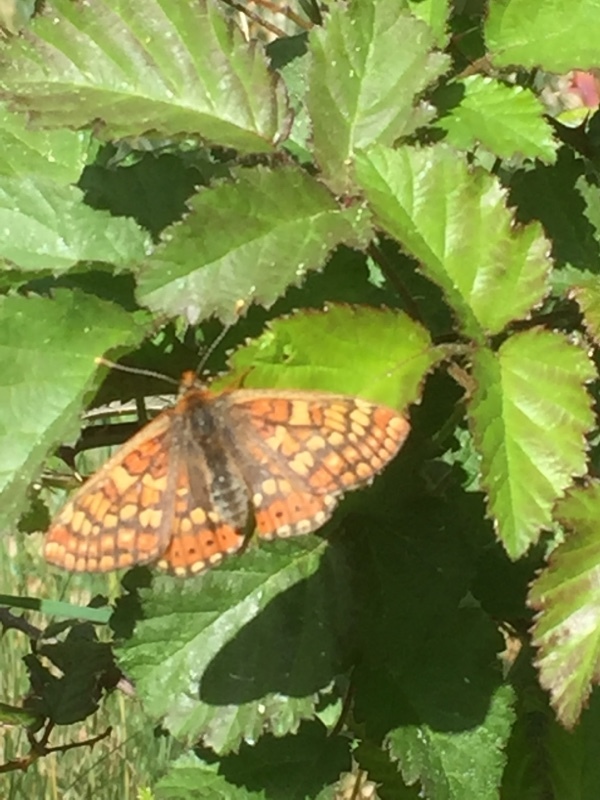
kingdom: Animalia
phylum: Arthropoda
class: Insecta
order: Lepidoptera
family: Nymphalidae
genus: Euphydryas
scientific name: Euphydryas aurinia
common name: Marsh fritillary
